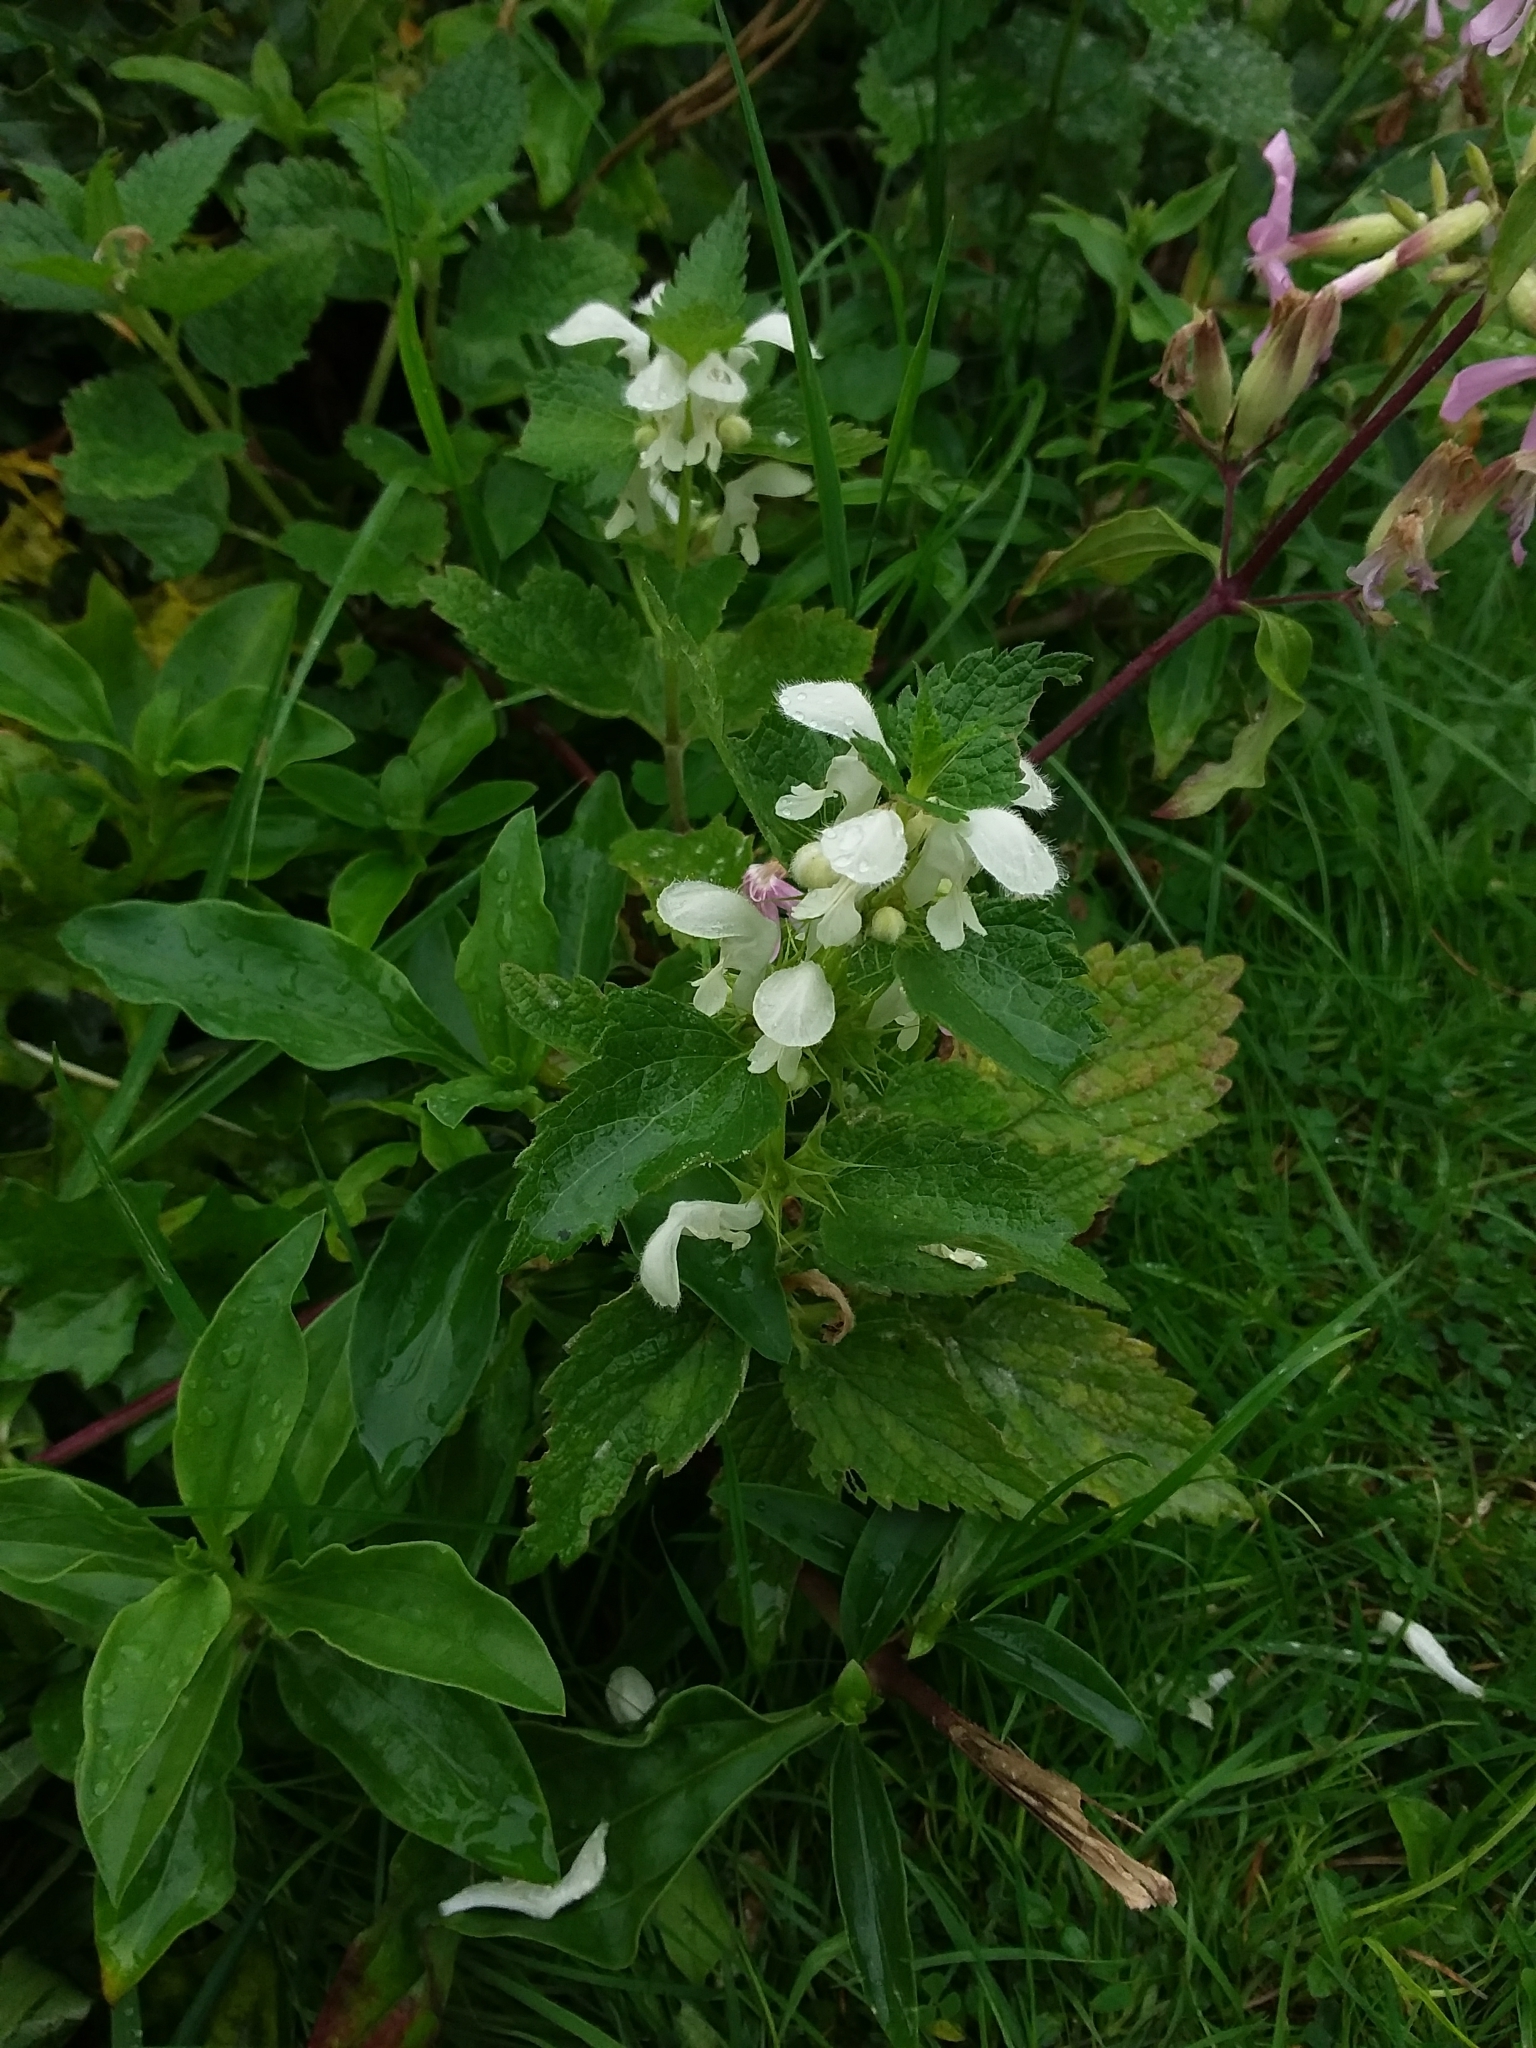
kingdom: Plantae
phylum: Tracheophyta
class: Magnoliopsida
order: Lamiales
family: Lamiaceae
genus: Lamium
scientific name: Lamium album
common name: White dead-nettle
